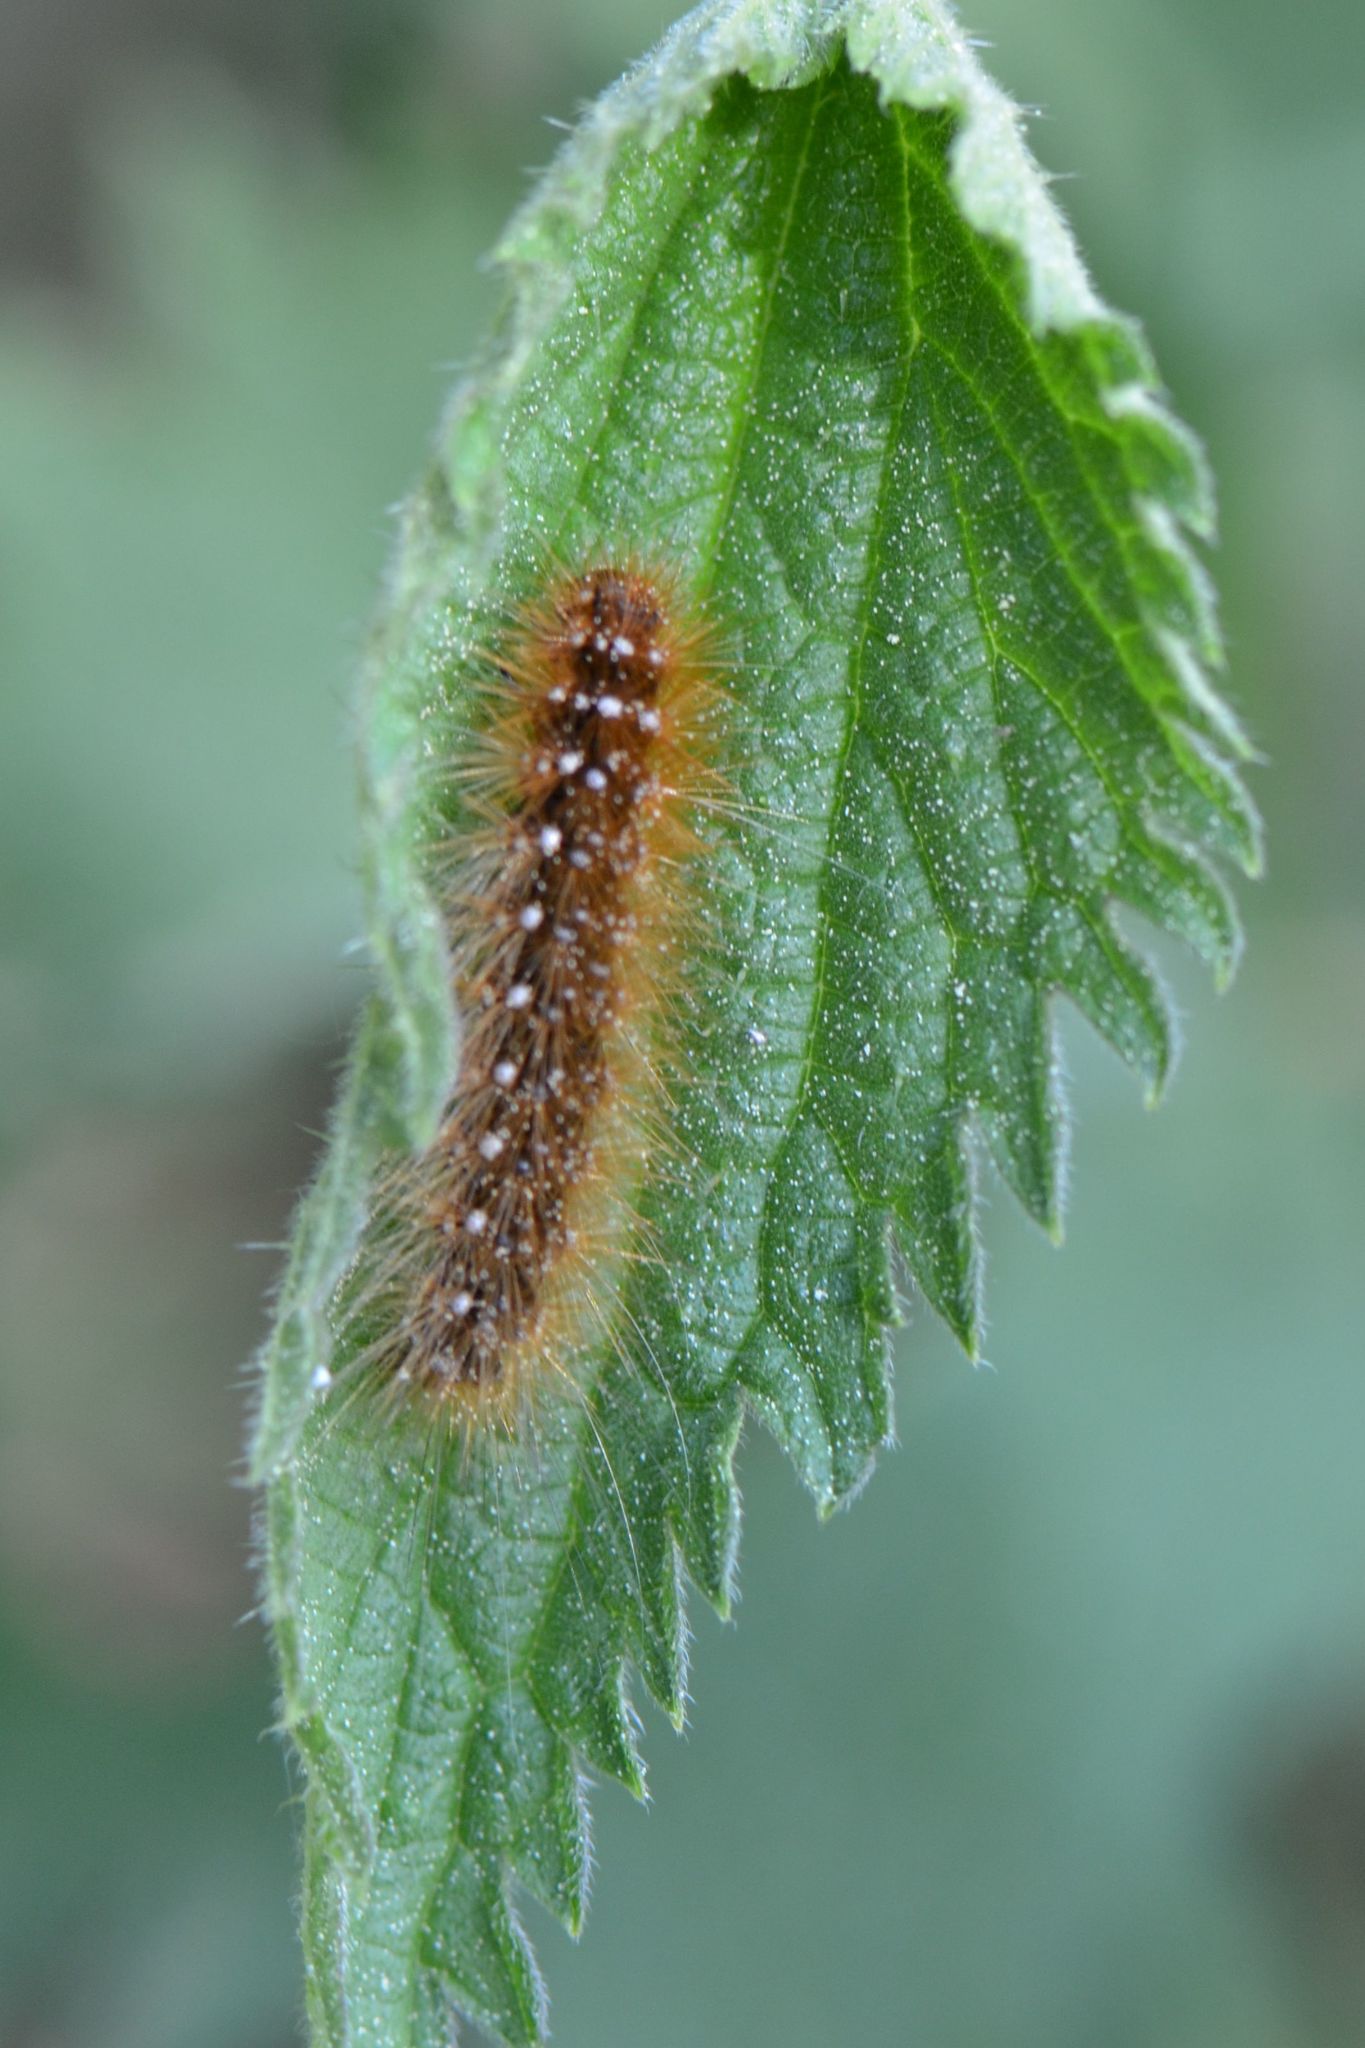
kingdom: Animalia
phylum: Arthropoda
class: Insecta
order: Lepidoptera
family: Erebidae
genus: Arctia
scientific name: Arctia caja
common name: Garden tiger
